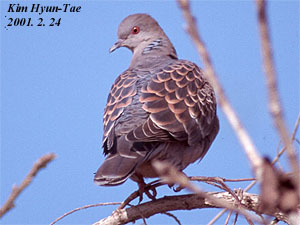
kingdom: Animalia
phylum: Chordata
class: Aves
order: Columbiformes
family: Columbidae
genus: Streptopelia
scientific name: Streptopelia orientalis
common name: Oriental turtle dove
